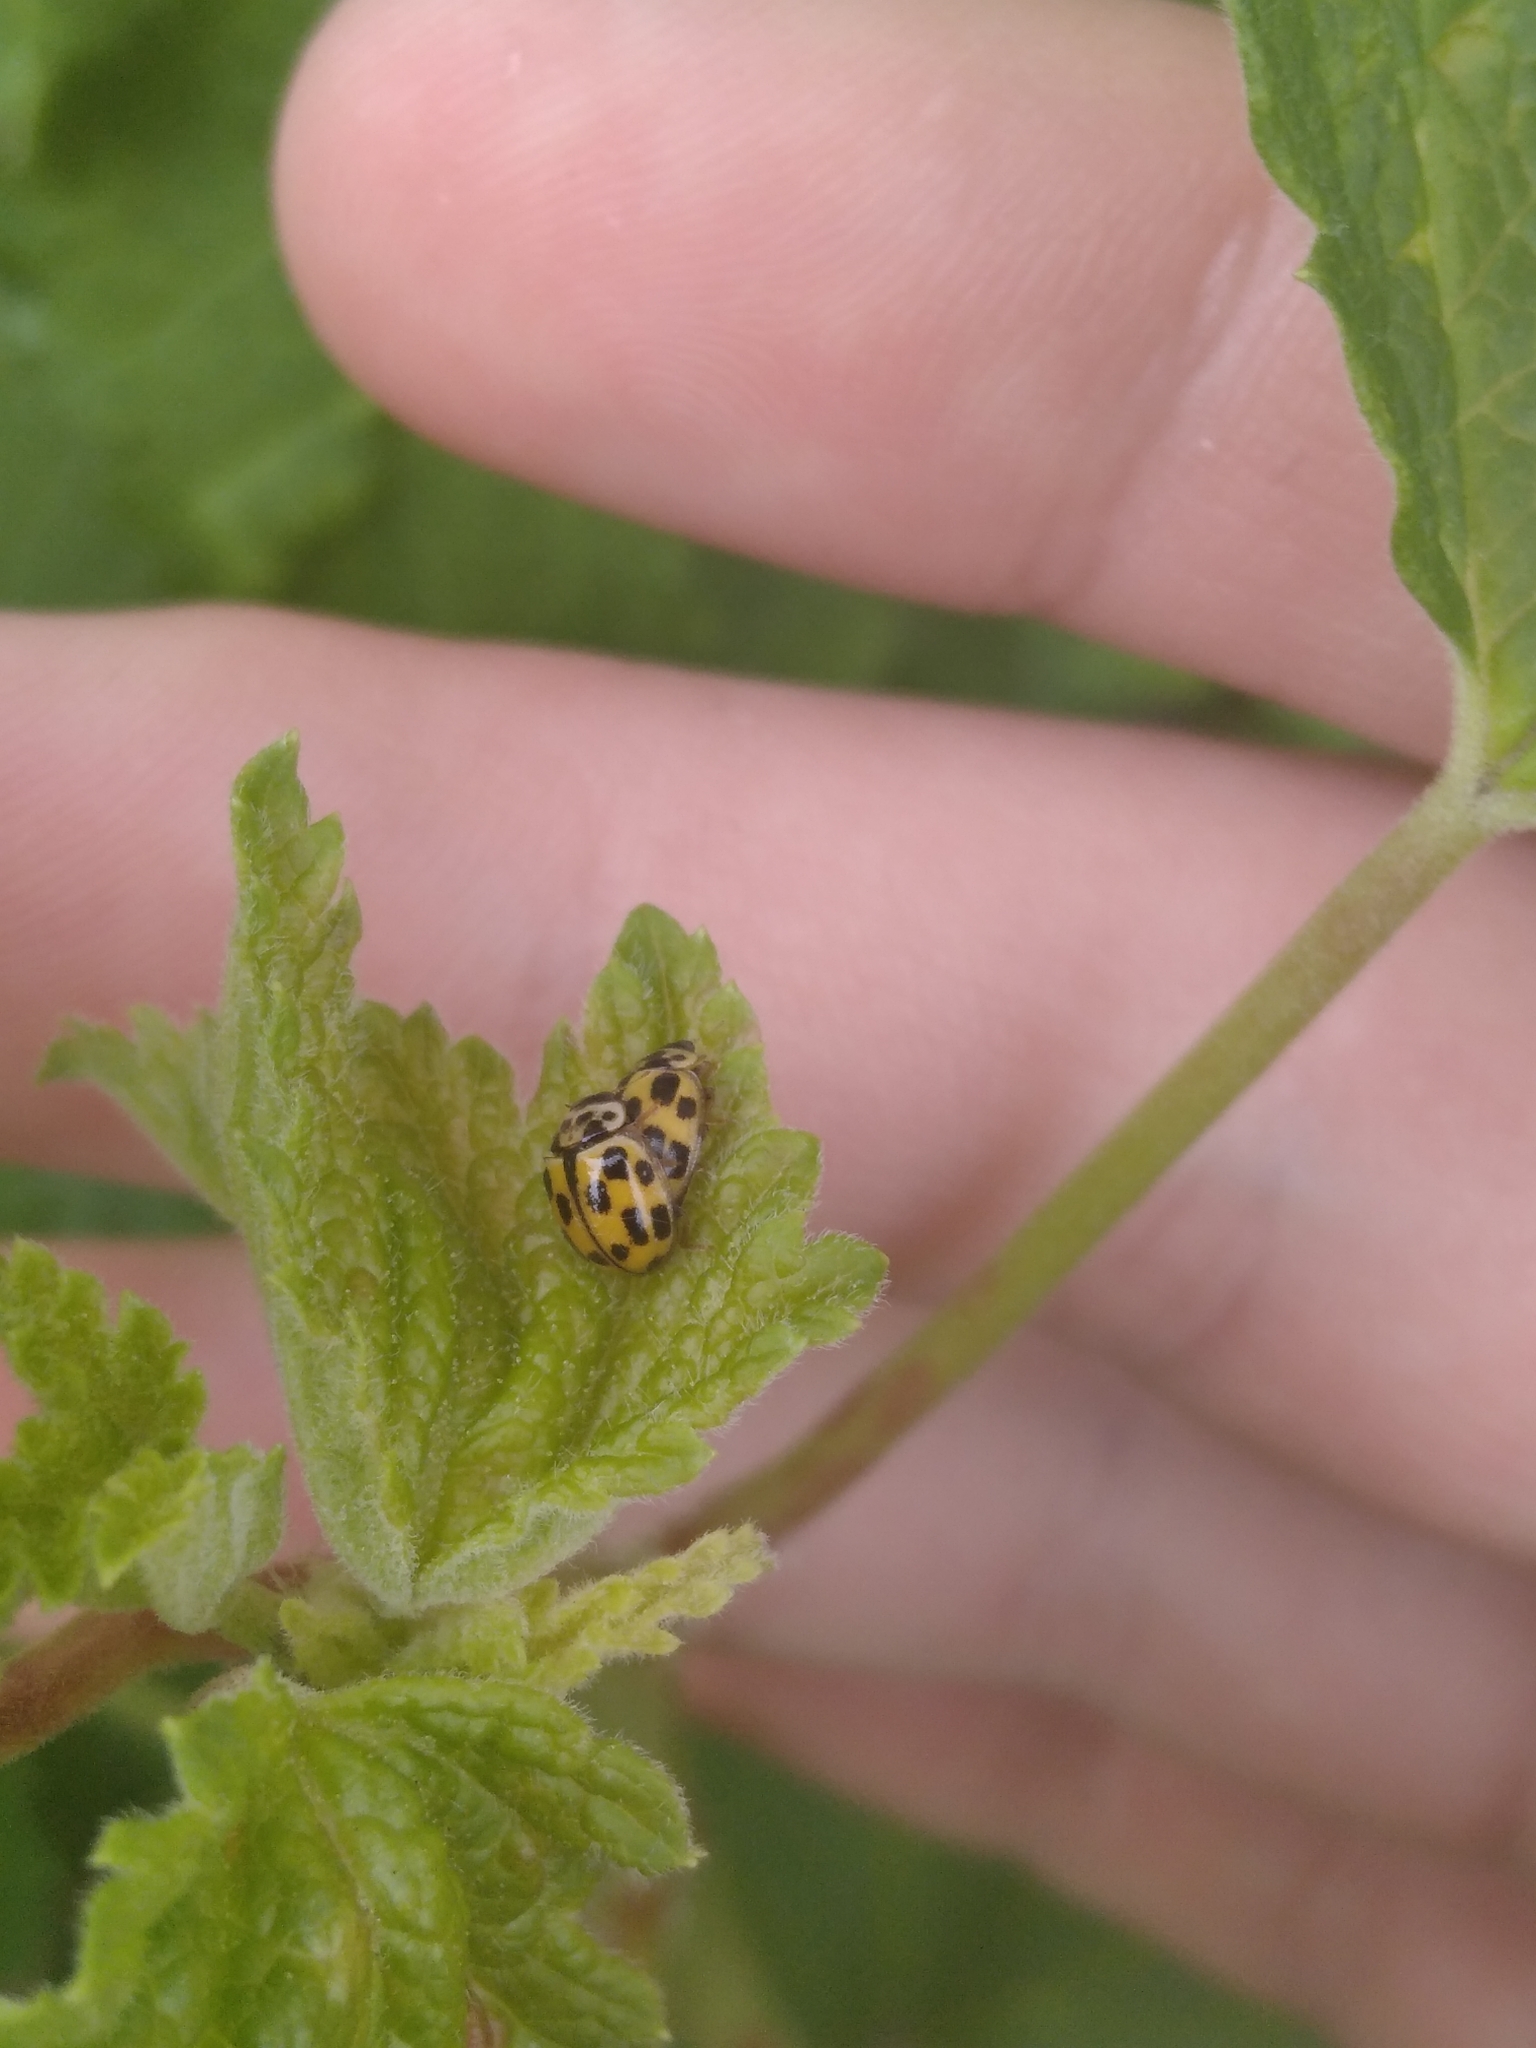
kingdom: Animalia
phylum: Arthropoda
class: Insecta
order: Coleoptera
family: Coccinellidae
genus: Propylaea
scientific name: Propylaea quatuordecimpunctata
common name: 14-spotted ladybird beetle
